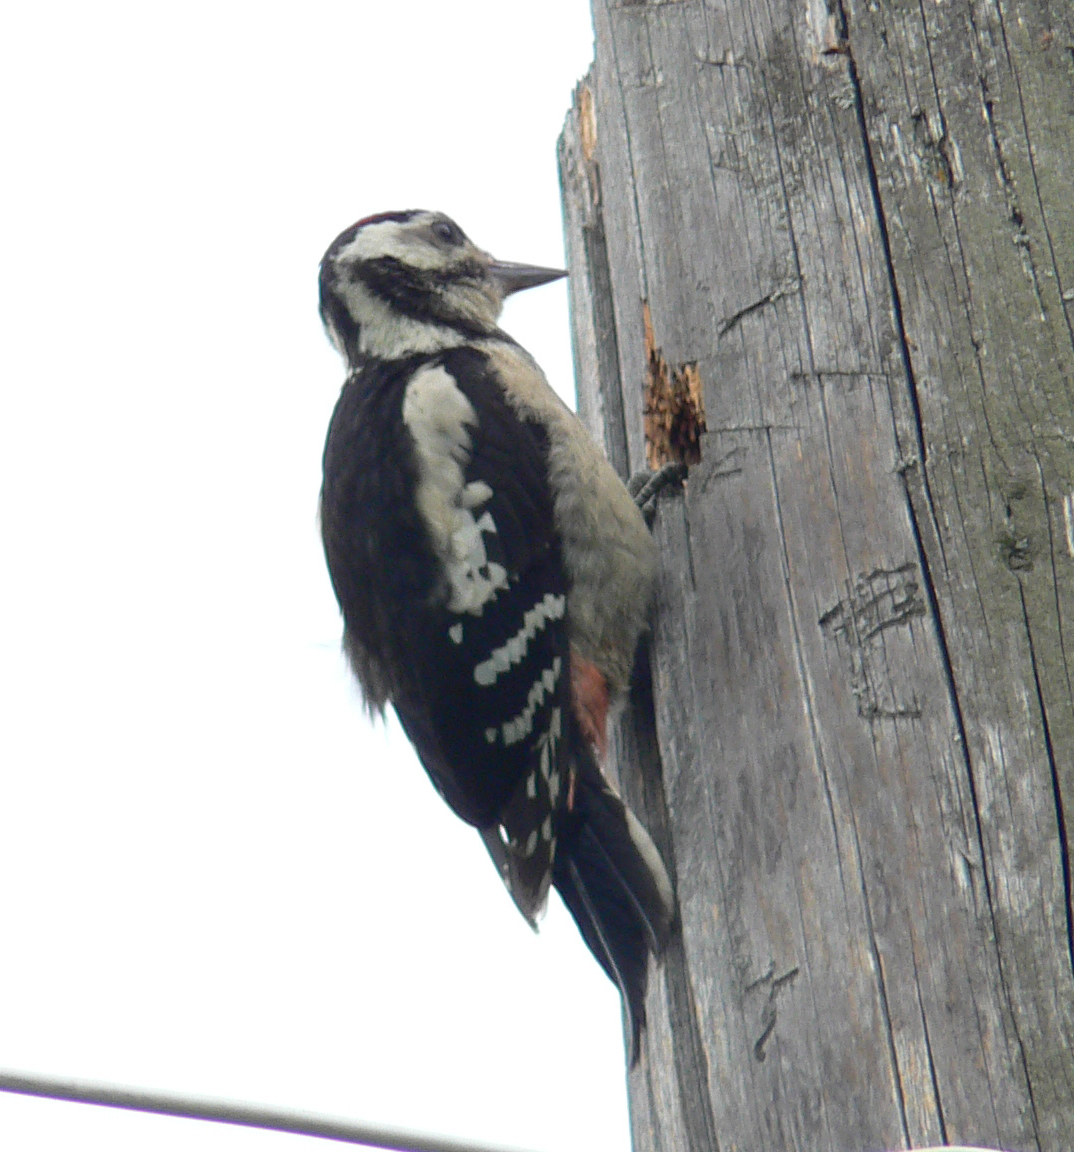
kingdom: Animalia
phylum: Chordata
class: Aves
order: Piciformes
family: Picidae
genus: Dendrocopos
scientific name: Dendrocopos major
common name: Great spotted woodpecker
